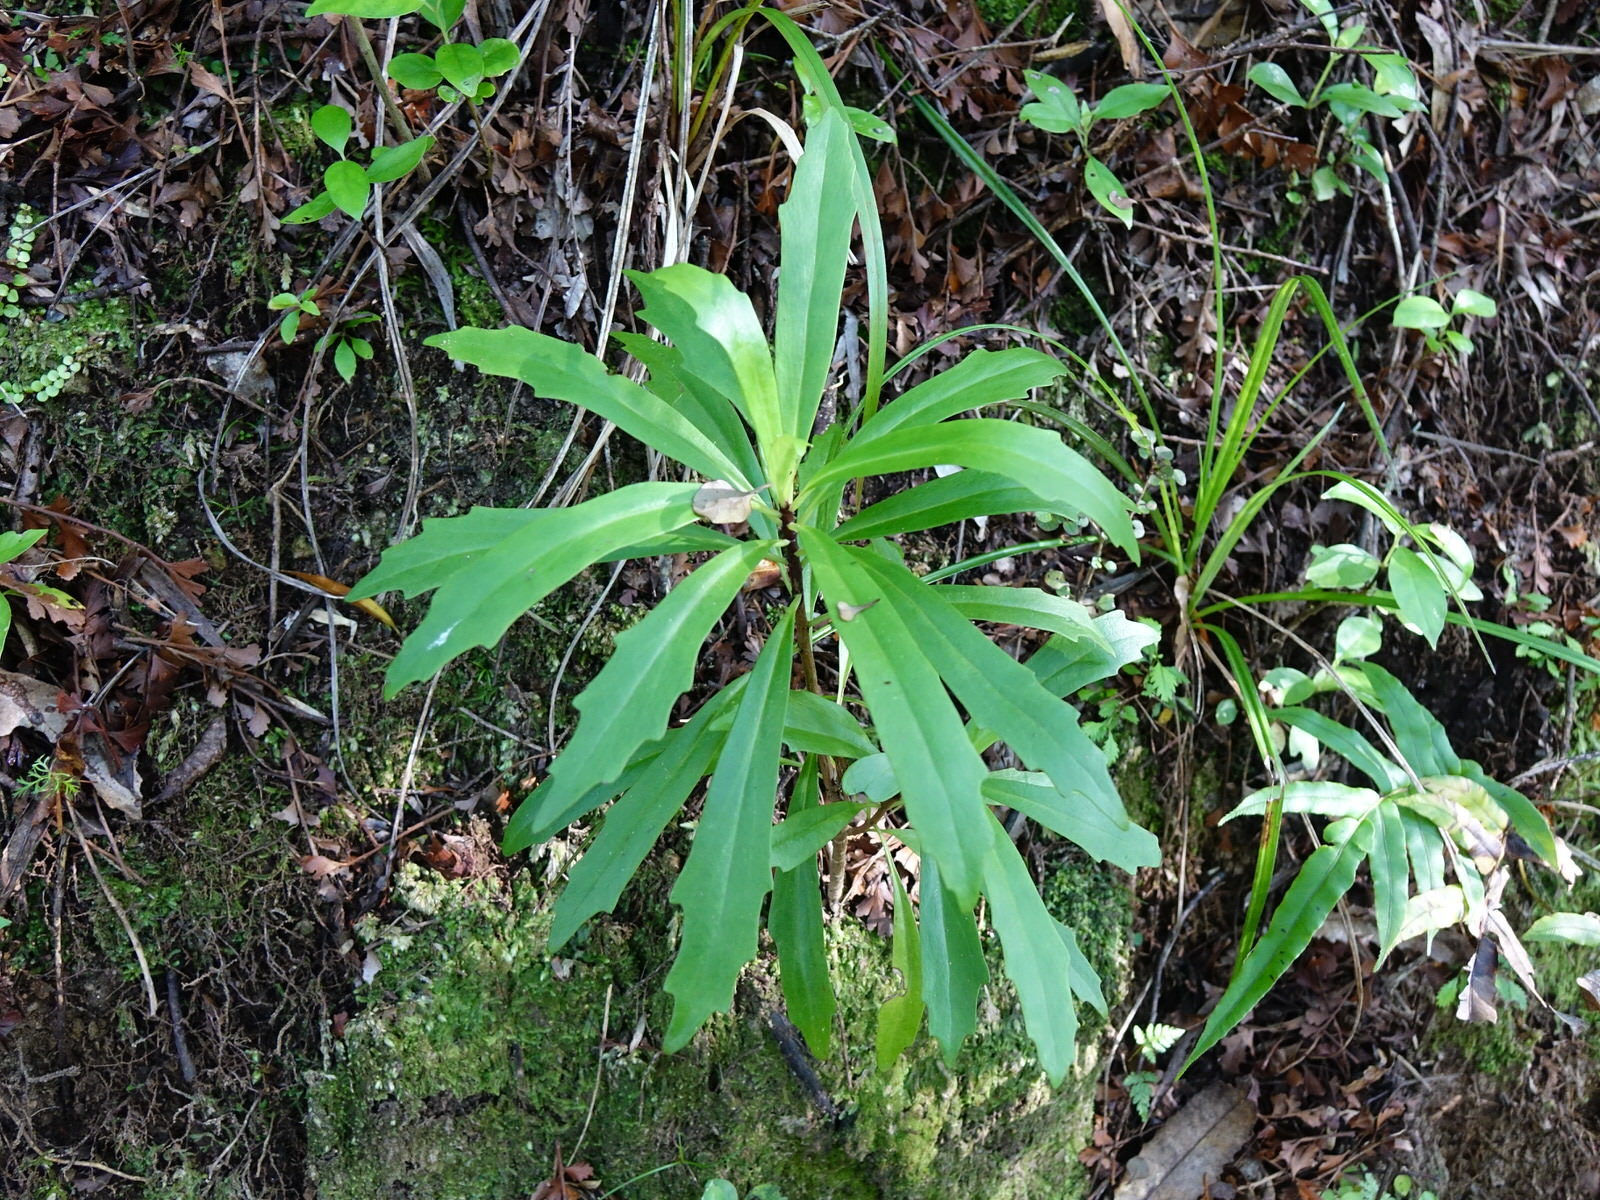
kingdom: Plantae
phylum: Tracheophyta
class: Magnoliopsida
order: Asterales
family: Asteraceae
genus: Brachyglottis
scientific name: Brachyglottis kirkii
